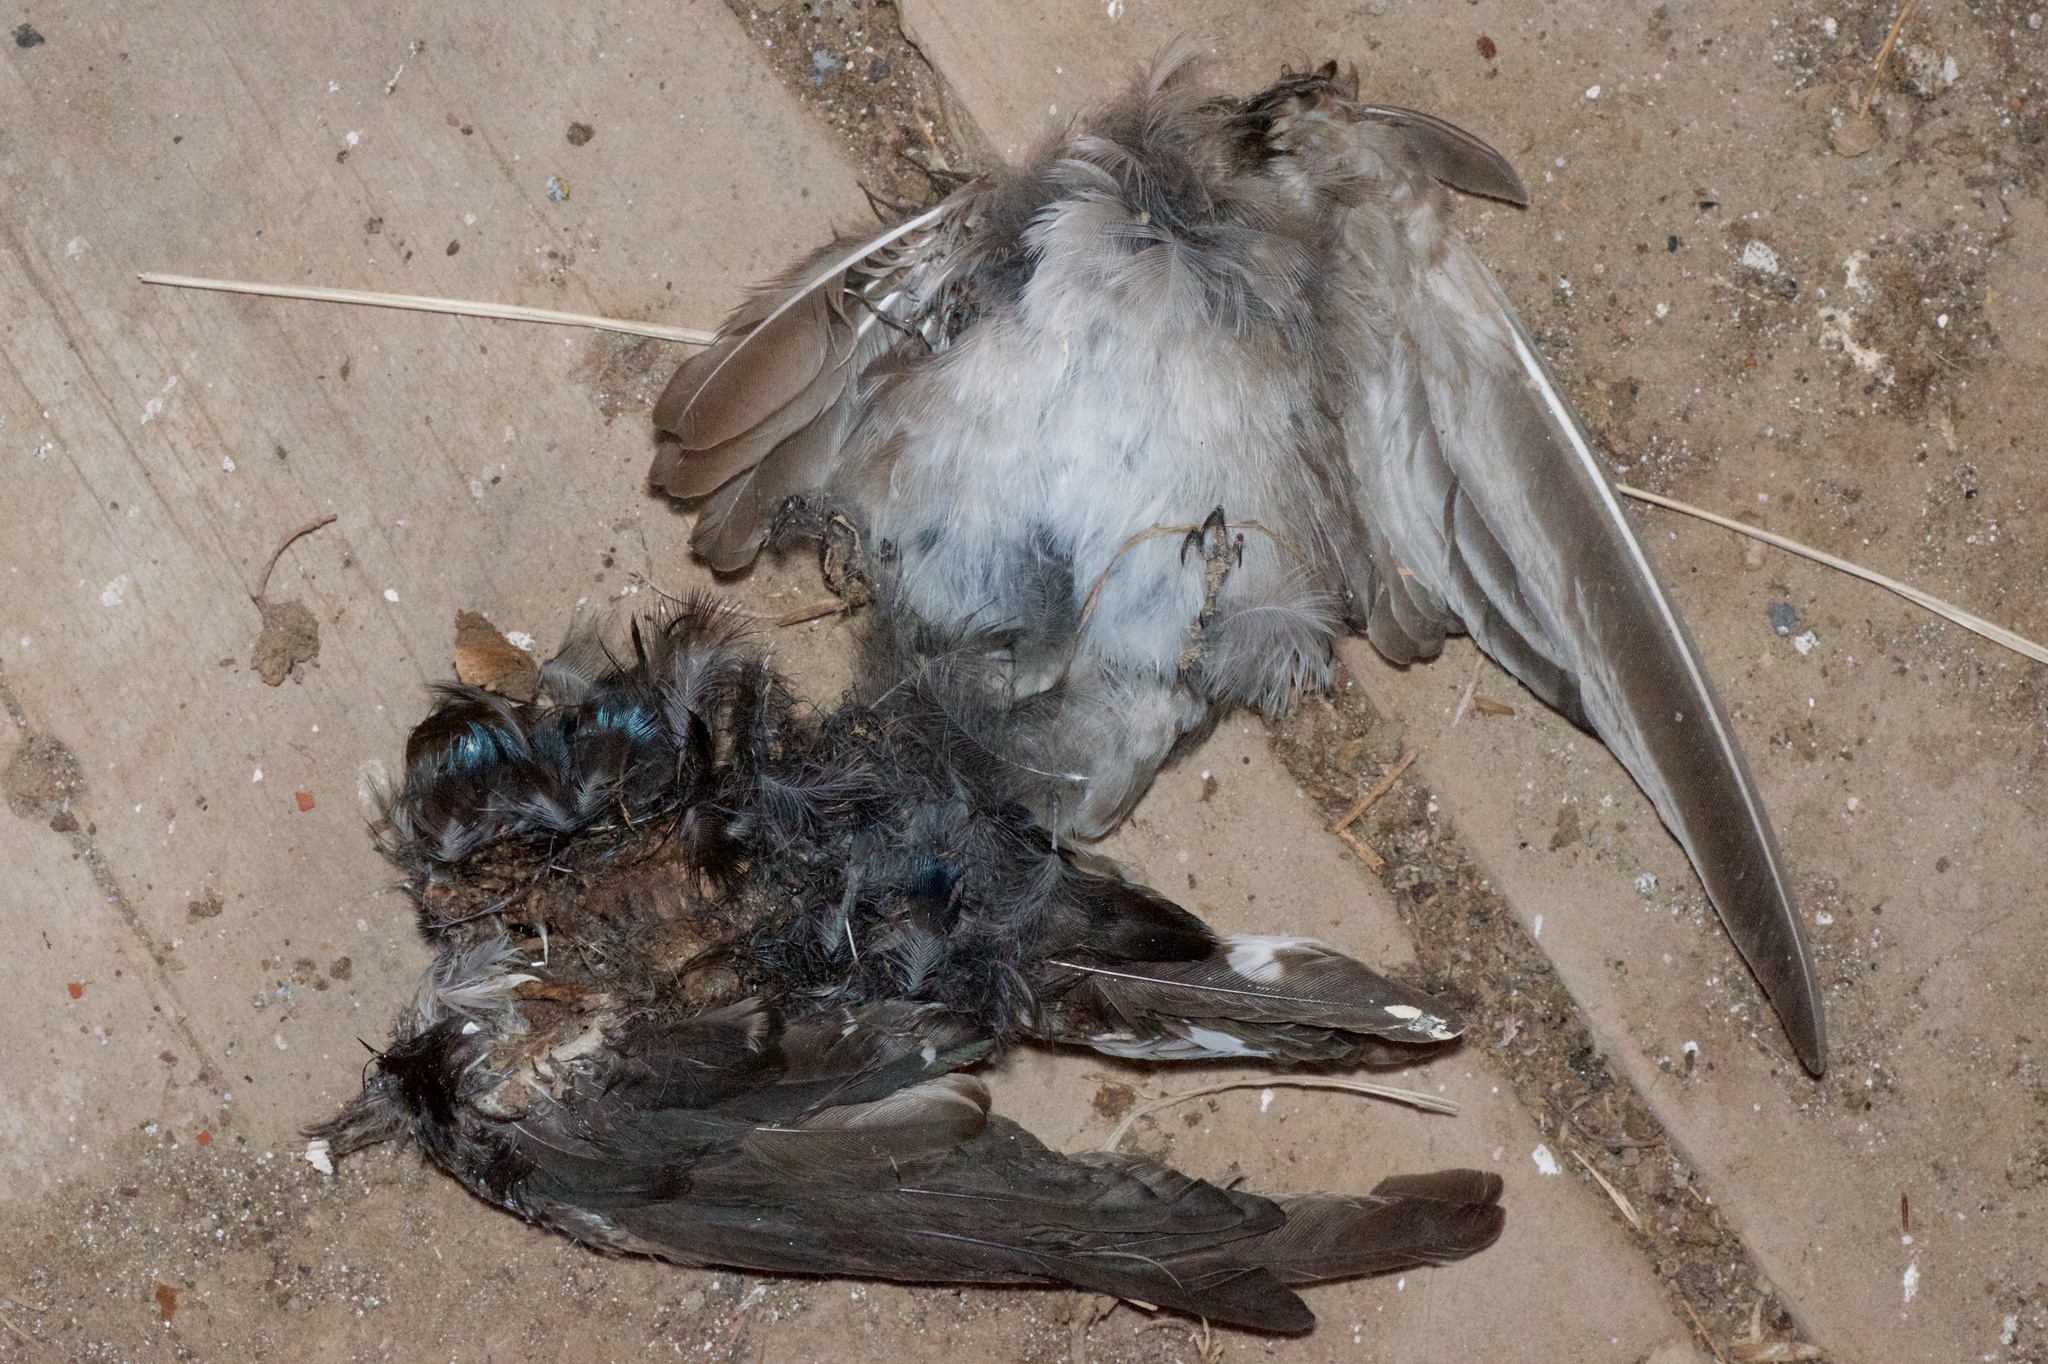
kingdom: Animalia
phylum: Chordata
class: Aves
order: Passeriformes
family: Hirundinidae
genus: Hirundo
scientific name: Hirundo neoxena
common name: Welcome swallow
